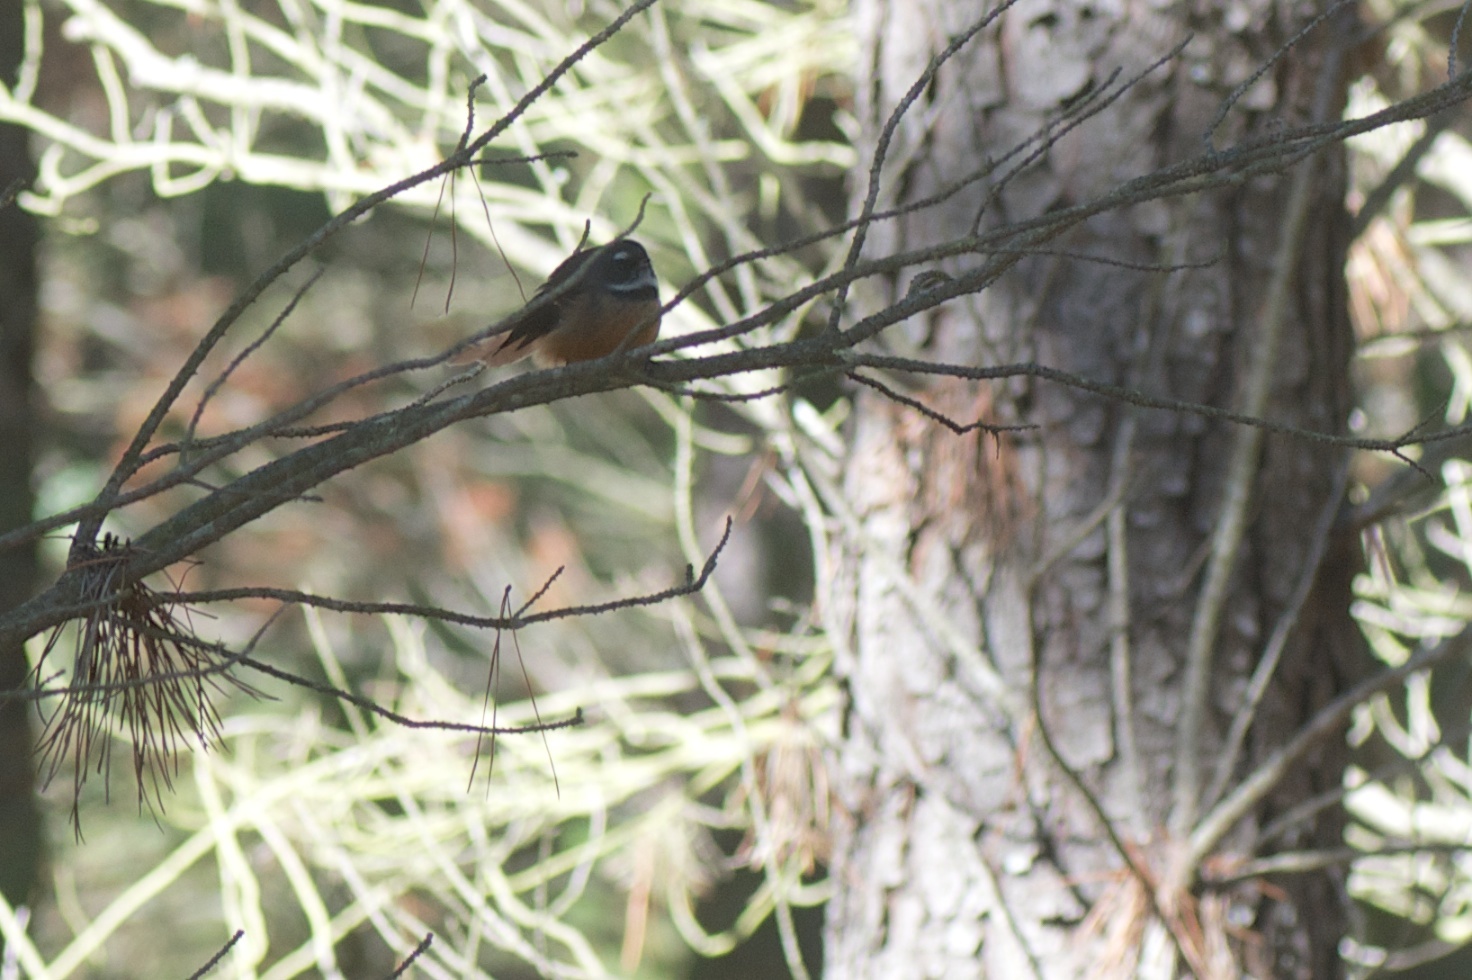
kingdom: Animalia
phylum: Chordata
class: Aves
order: Passeriformes
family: Rhipiduridae
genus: Rhipidura
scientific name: Rhipidura fuliginosa
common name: New zealand fantail
